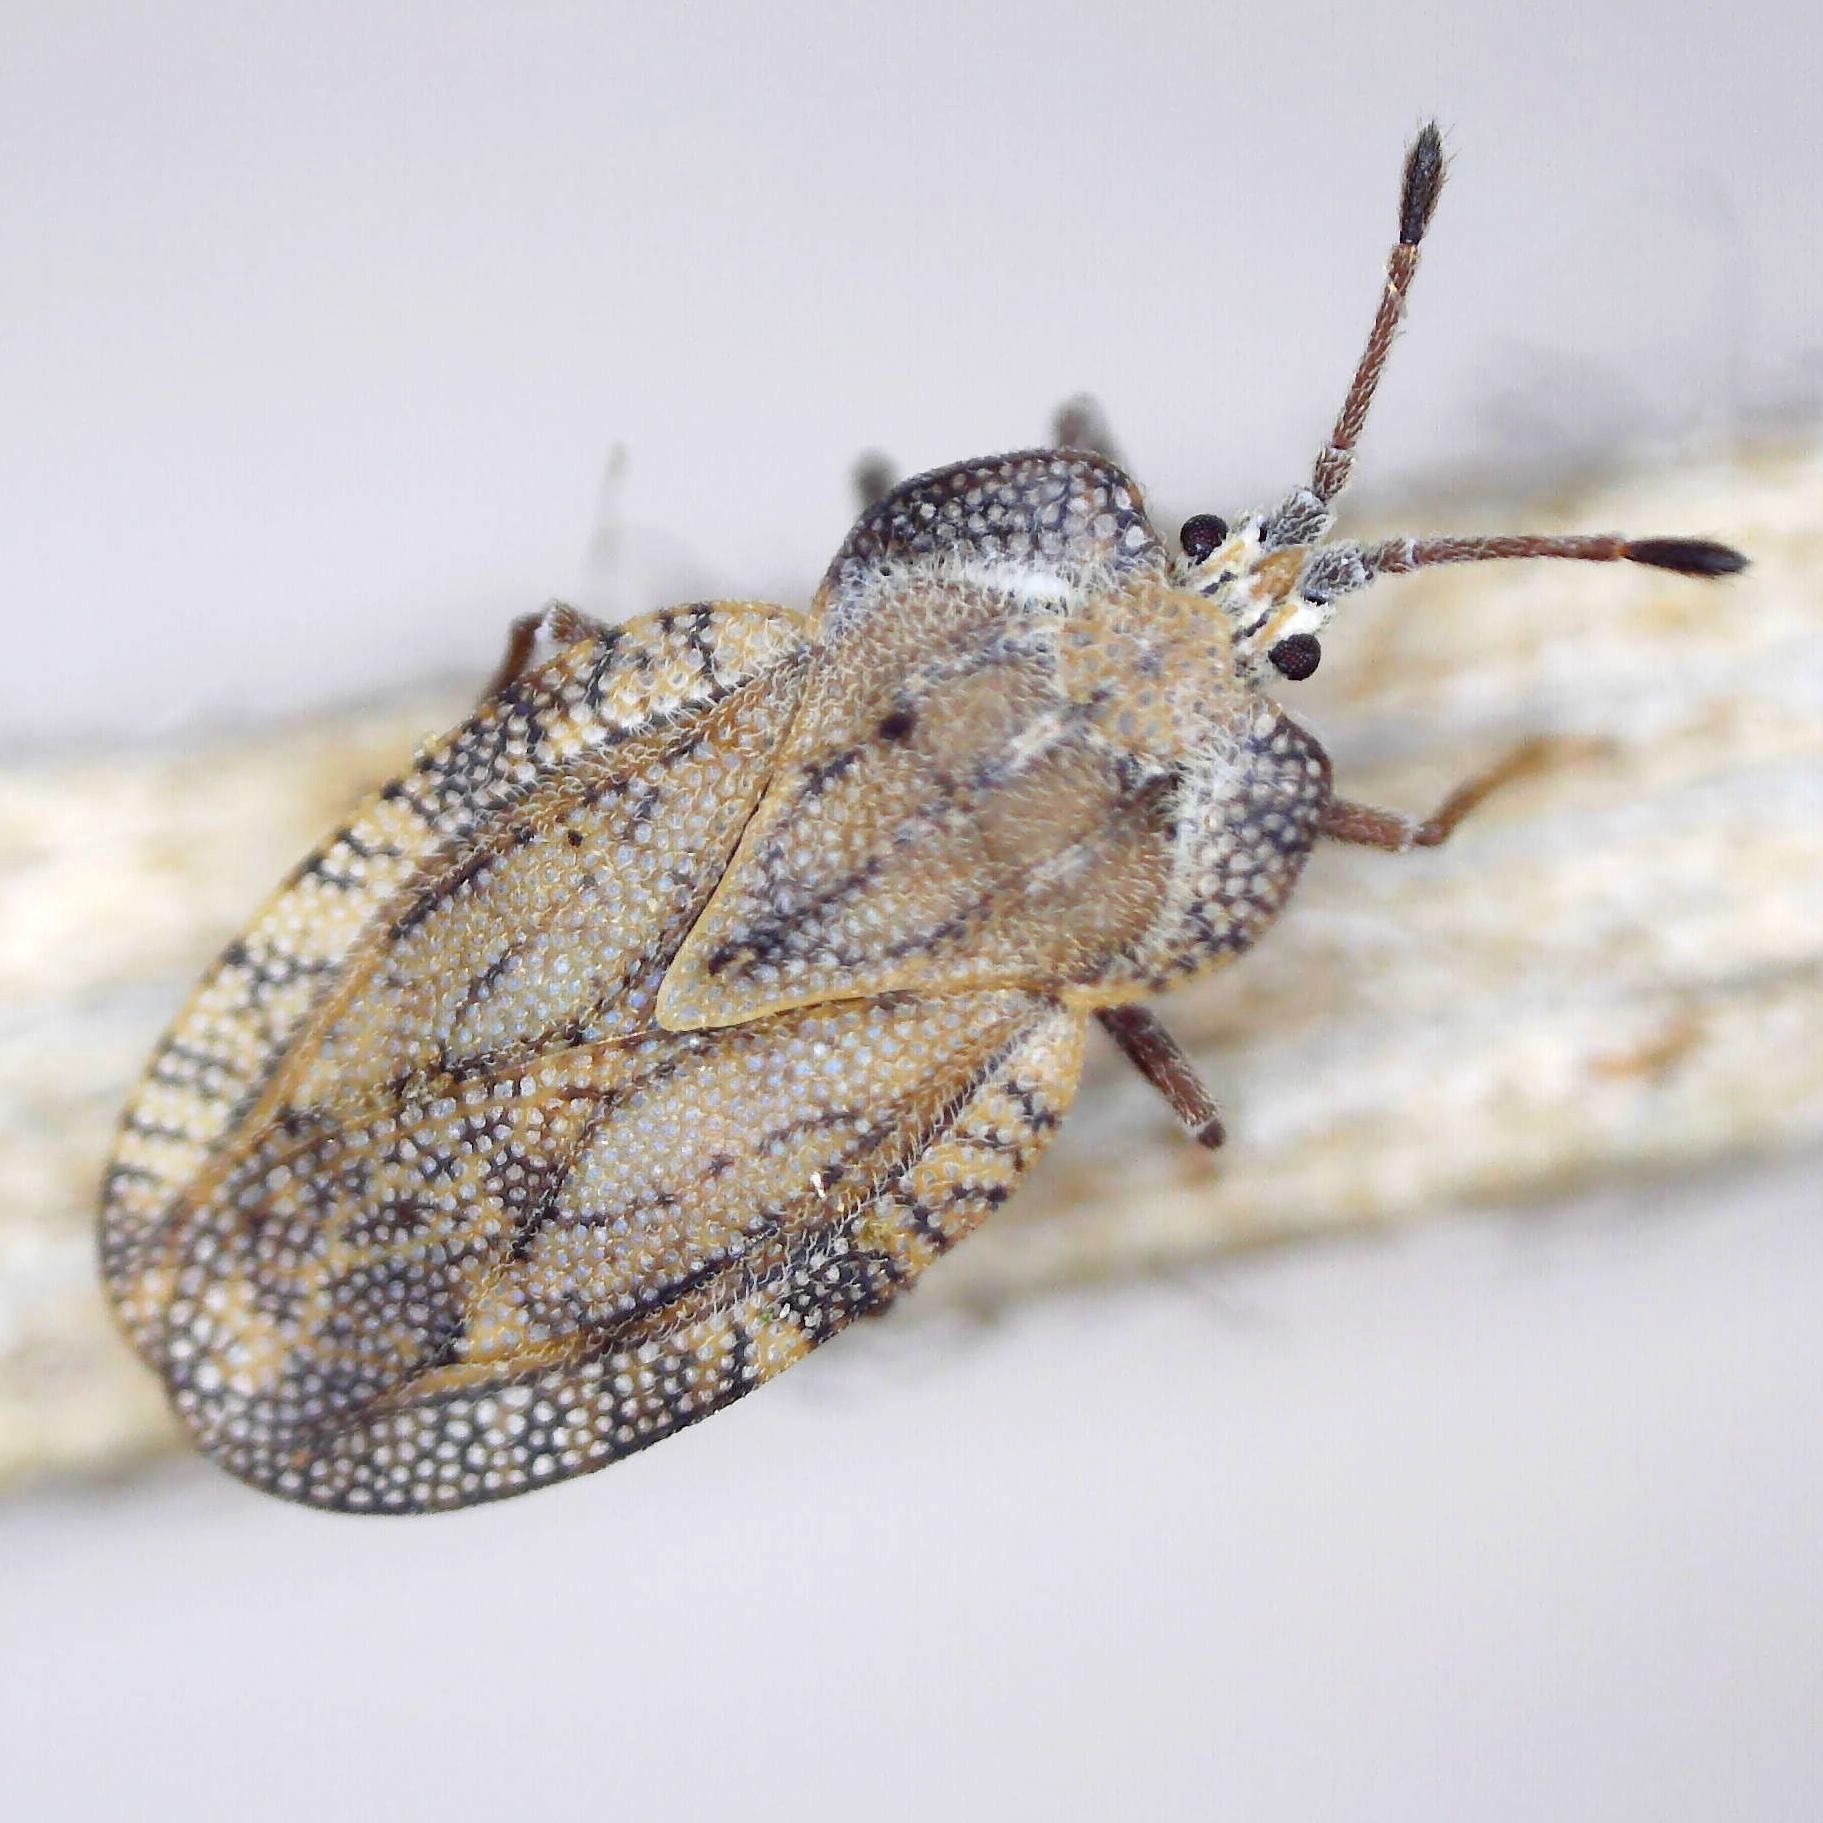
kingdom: Animalia
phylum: Arthropoda
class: Insecta
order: Hemiptera
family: Tingidae
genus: Tingis
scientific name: Tingis ampliata
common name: Creeping thistle lacebug
